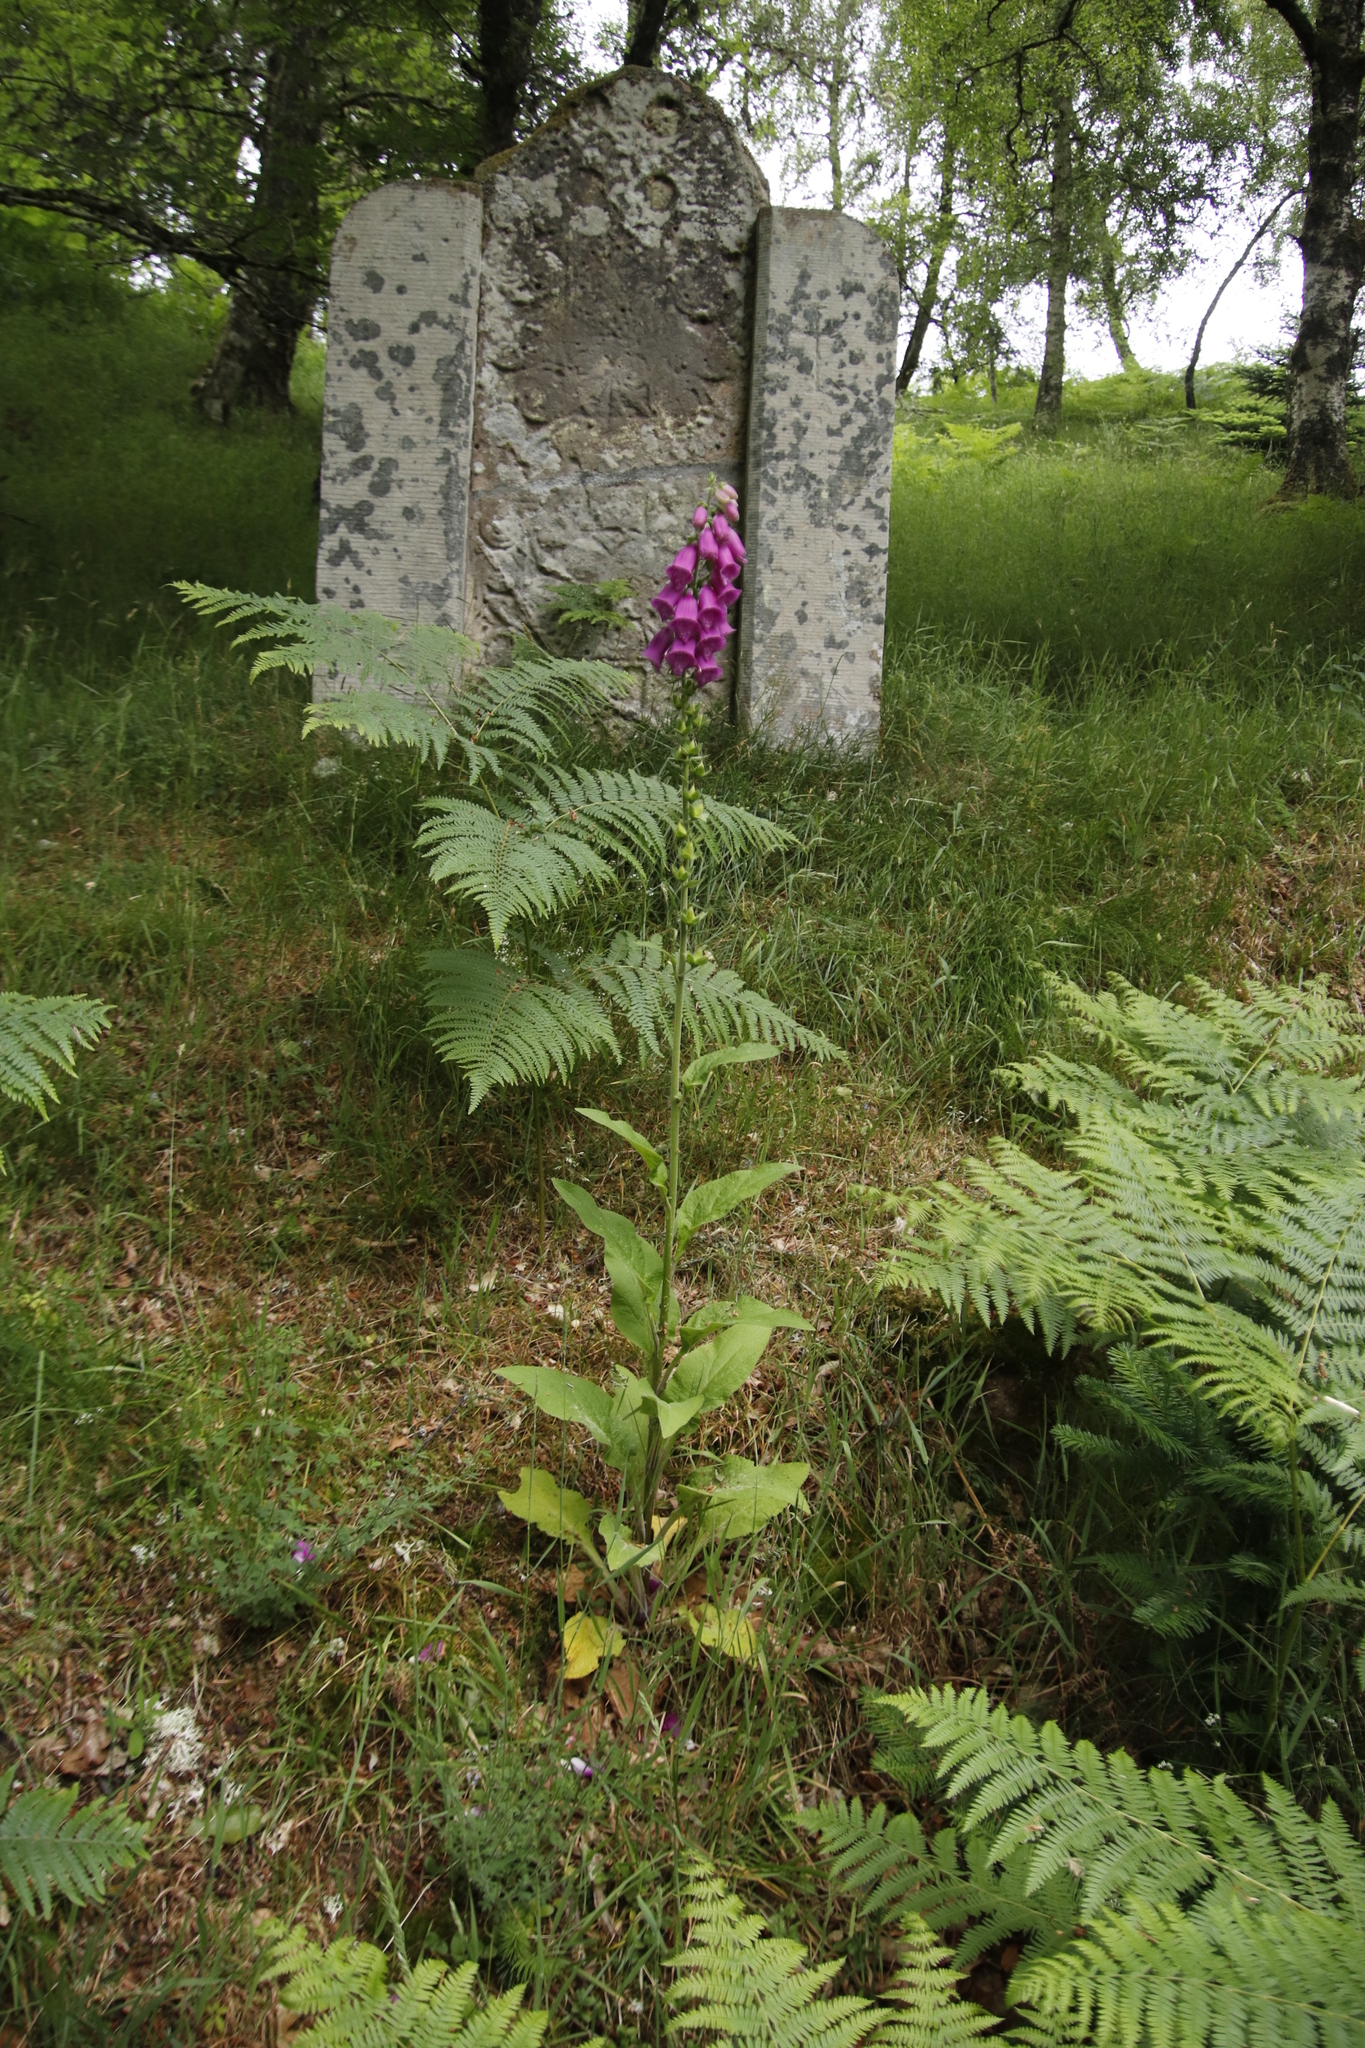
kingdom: Plantae
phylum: Tracheophyta
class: Magnoliopsida
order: Lamiales
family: Plantaginaceae
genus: Digitalis
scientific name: Digitalis purpurea
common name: Foxglove
